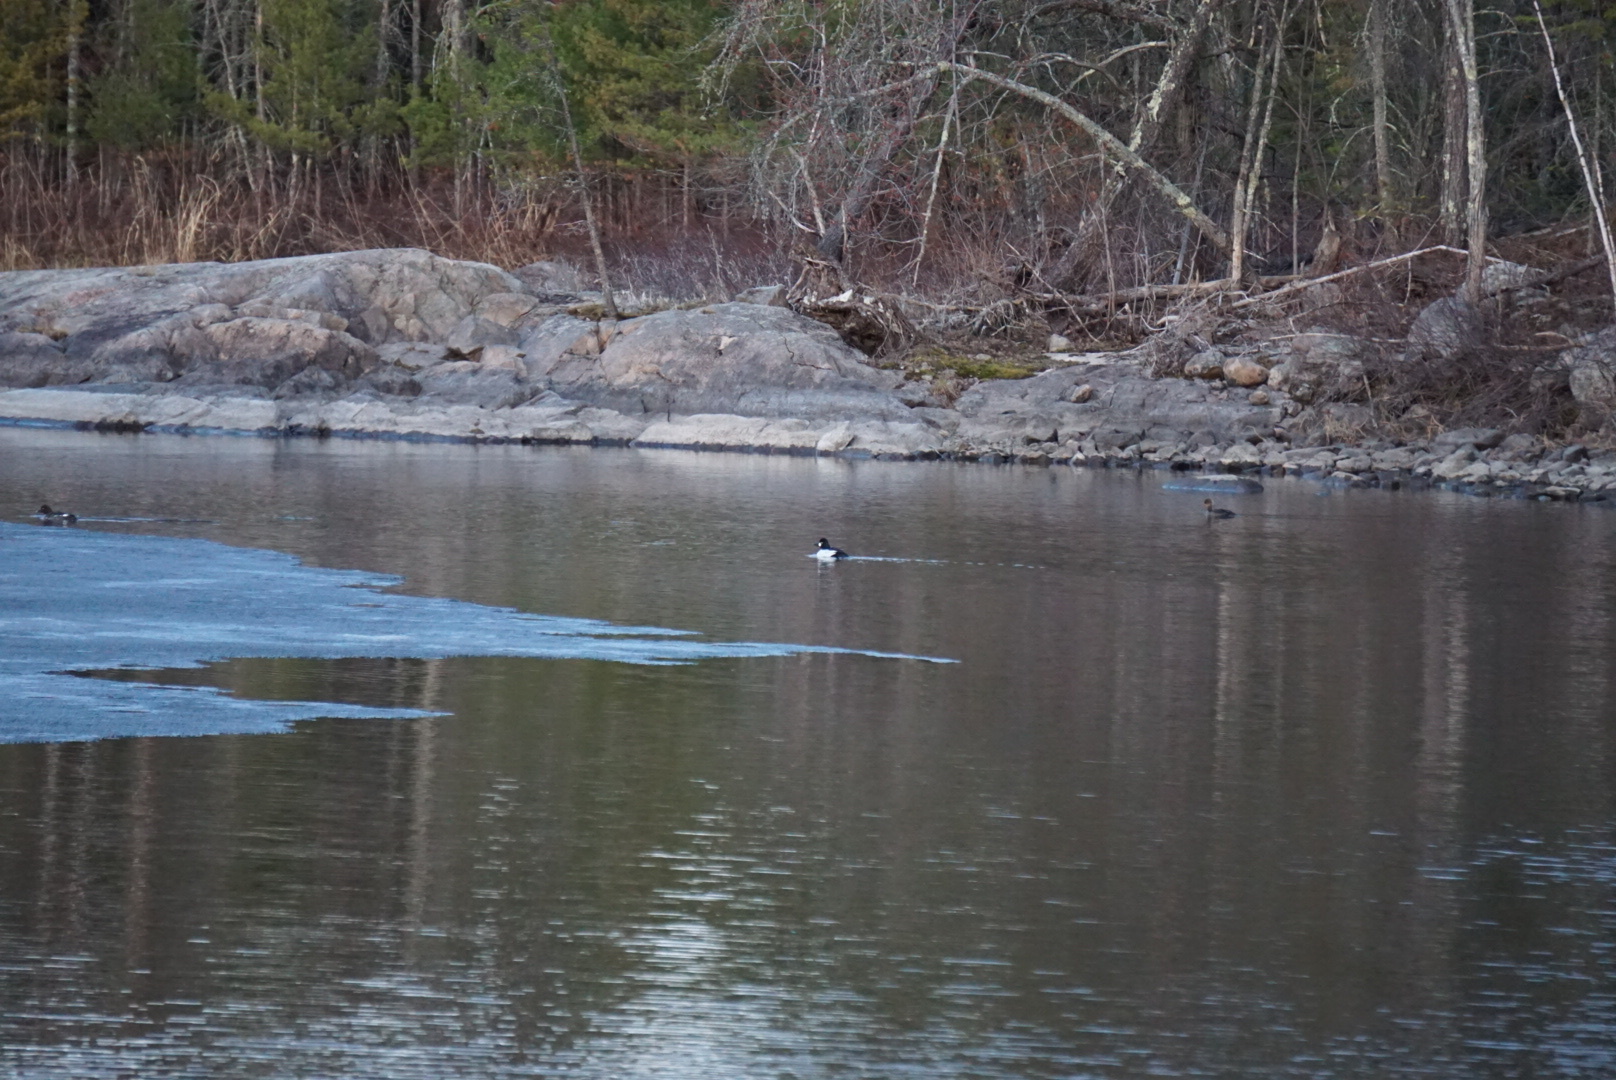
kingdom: Animalia
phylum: Chordata
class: Aves
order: Anseriformes
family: Anatidae
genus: Bucephala
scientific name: Bucephala clangula
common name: Common goldeneye
